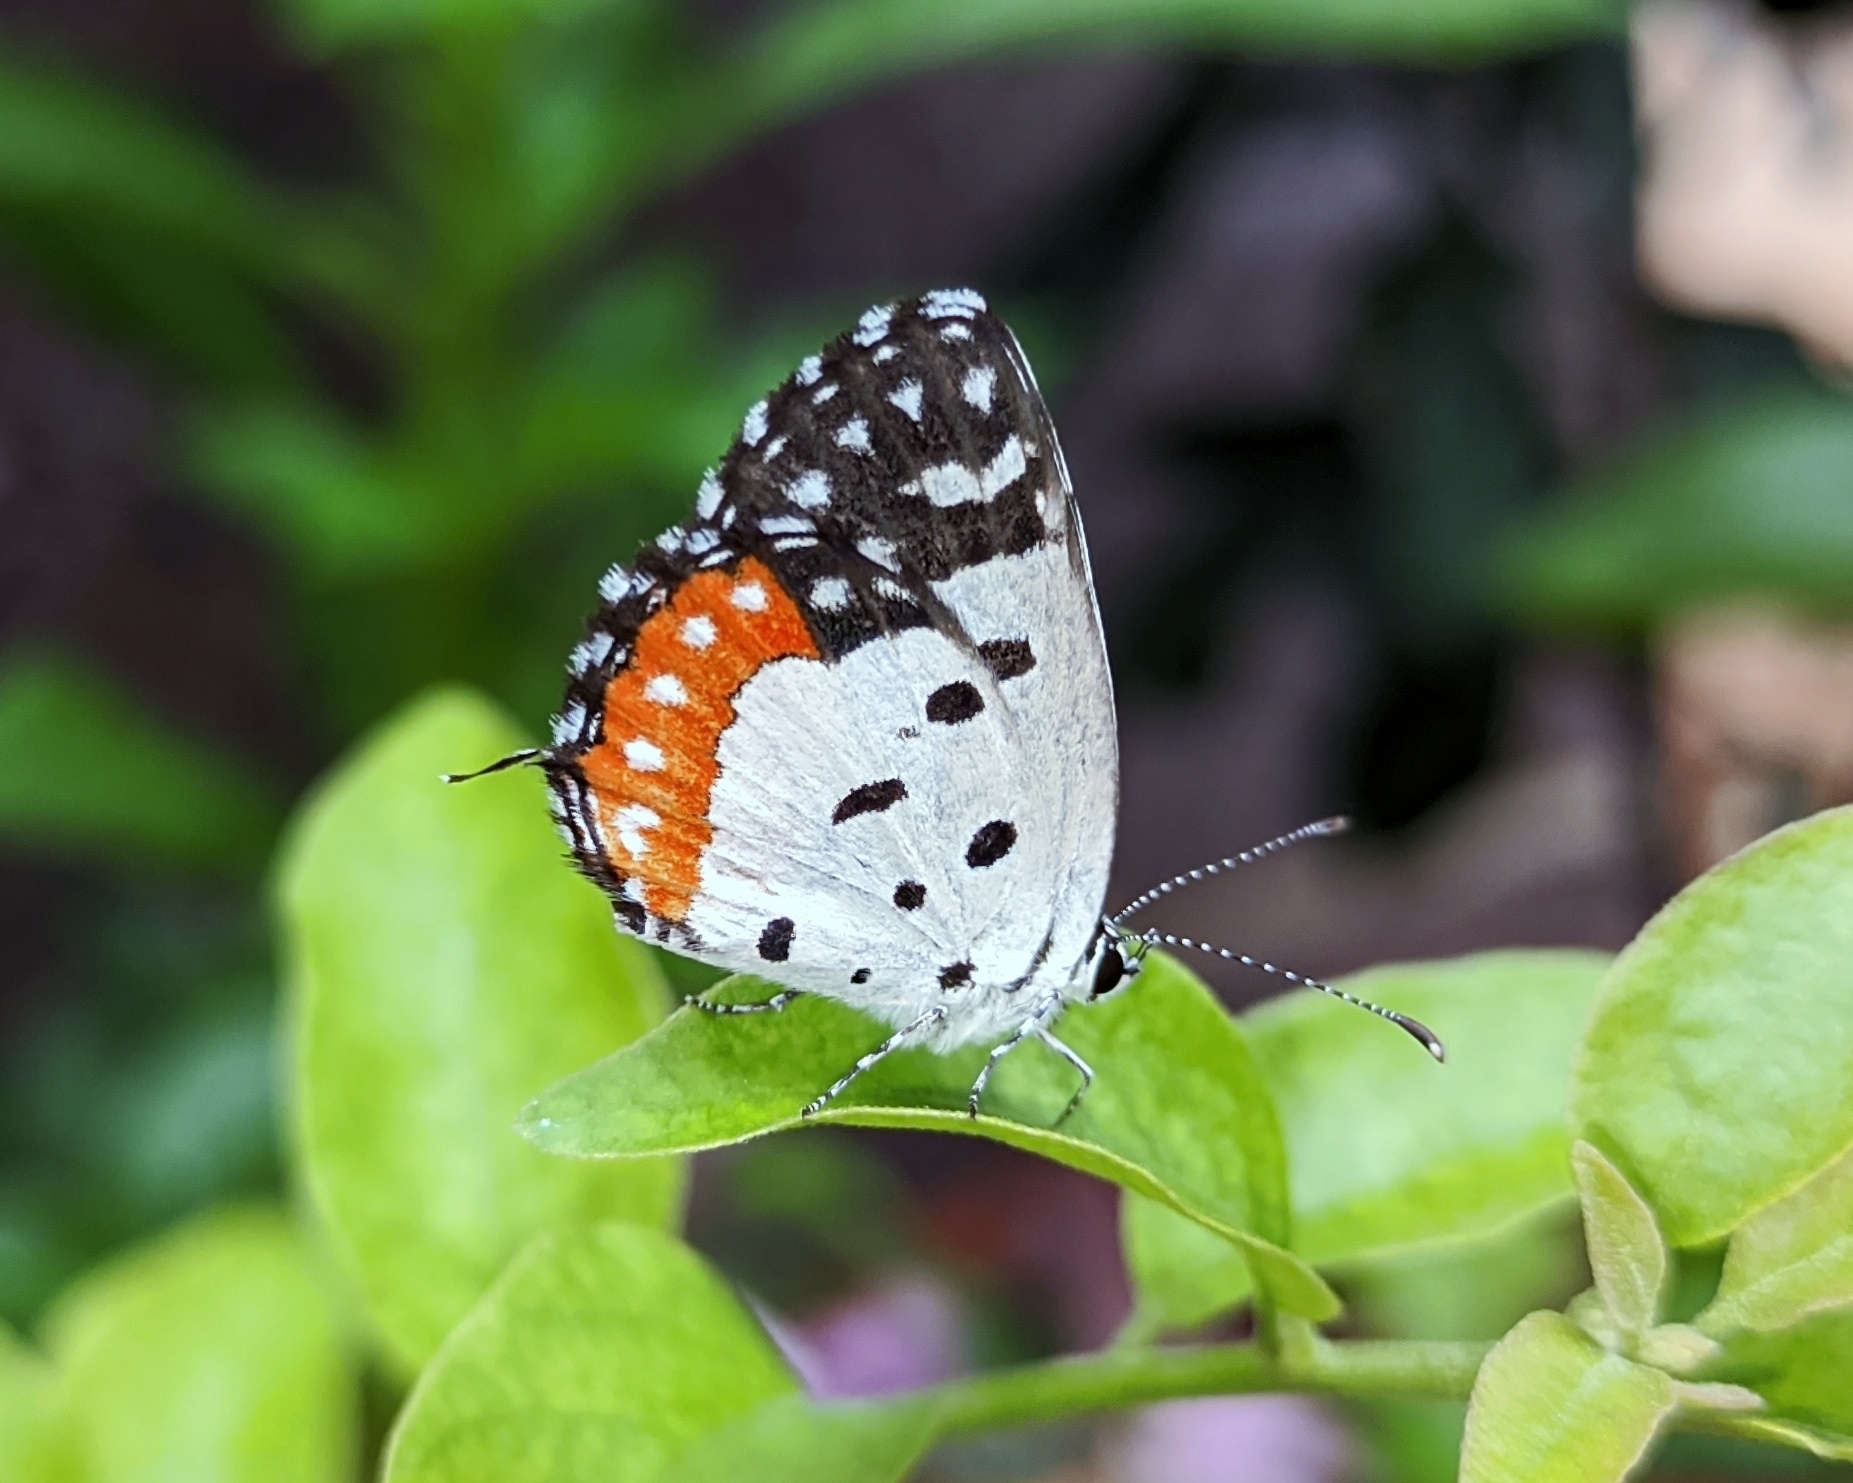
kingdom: Animalia
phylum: Arthropoda
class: Insecta
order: Lepidoptera
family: Lycaenidae
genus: Talicada
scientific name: Talicada nyseus
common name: Red pierrot
